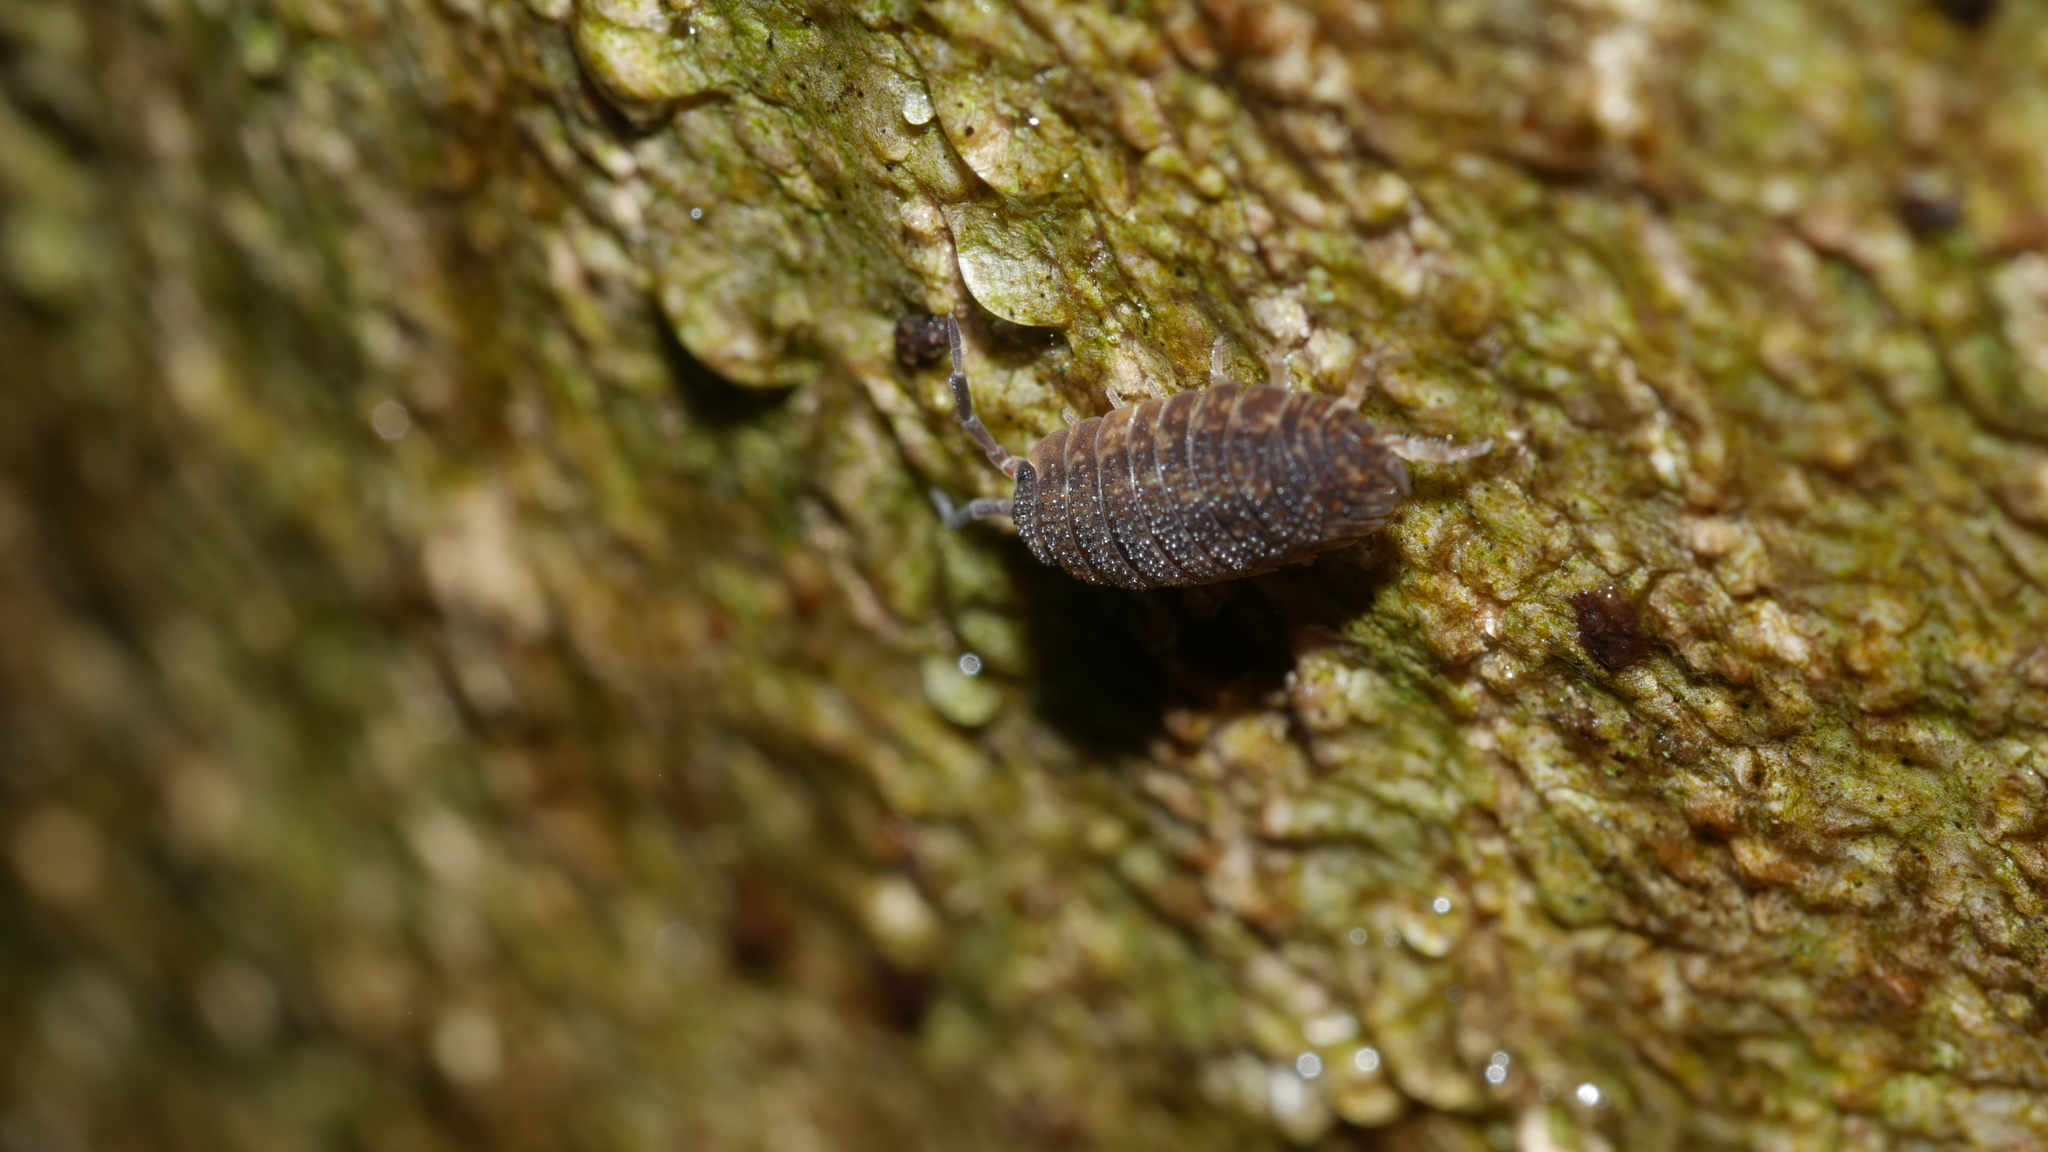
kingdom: Animalia
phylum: Arthropoda
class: Malacostraca
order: Isopoda
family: Porcellionidae
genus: Porcellio
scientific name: Porcellio scaber
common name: Common rough woodlouse
